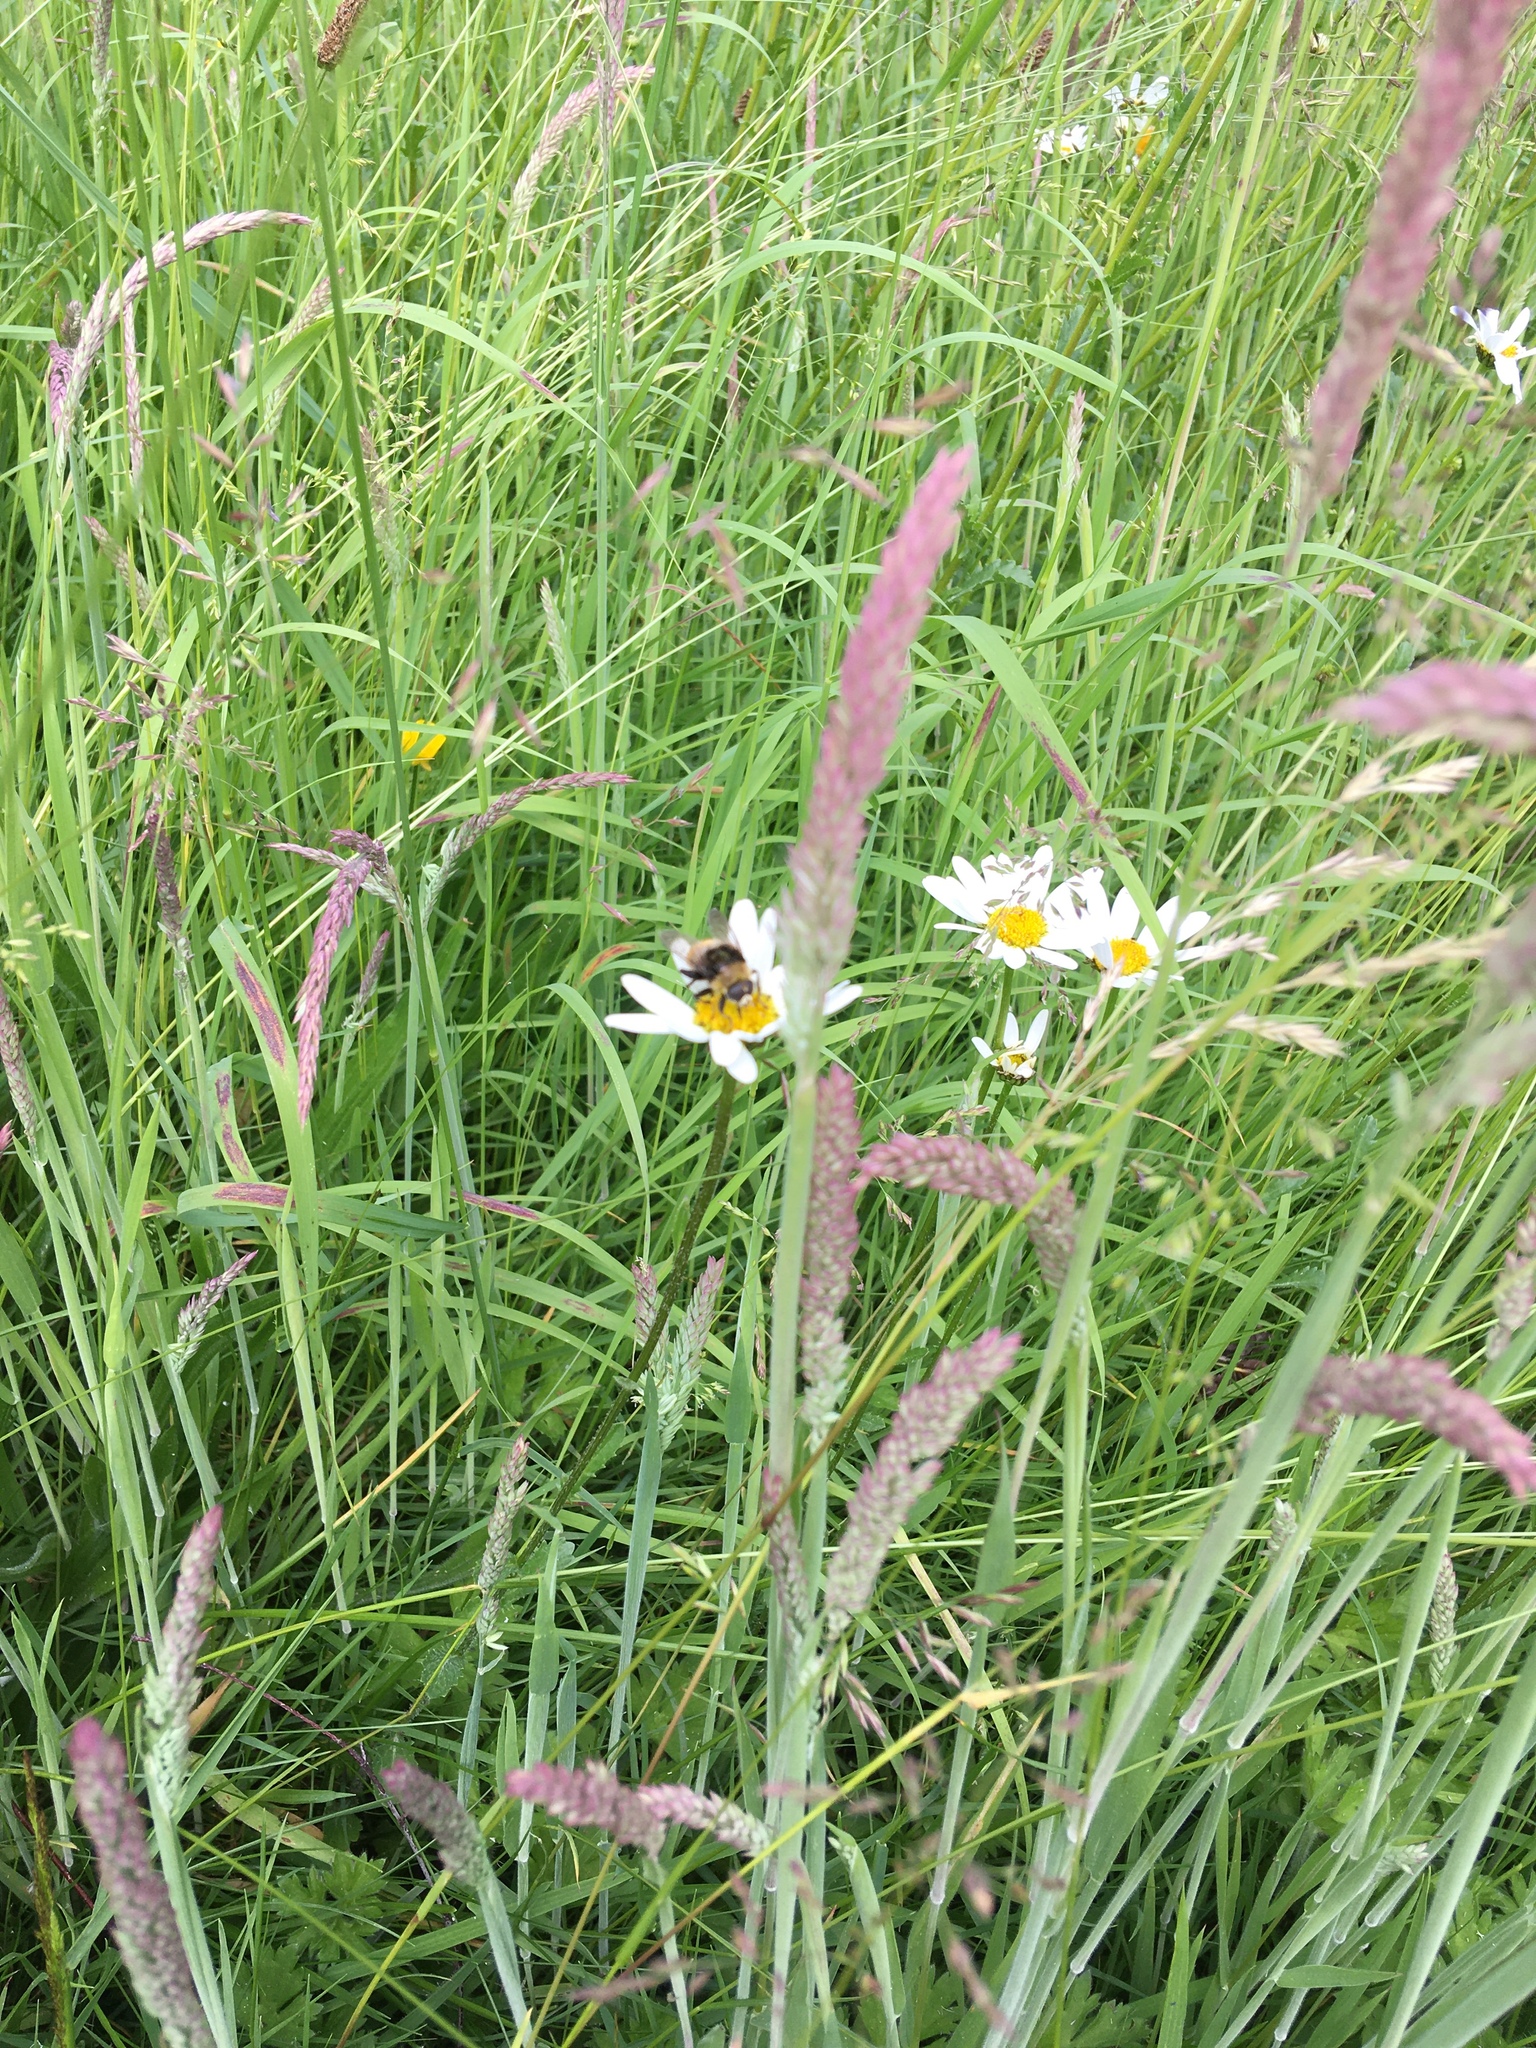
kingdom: Animalia
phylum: Arthropoda
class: Insecta
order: Diptera
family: Syrphidae
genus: Merodon
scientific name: Merodon equestris
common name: Greater bulb-fly
